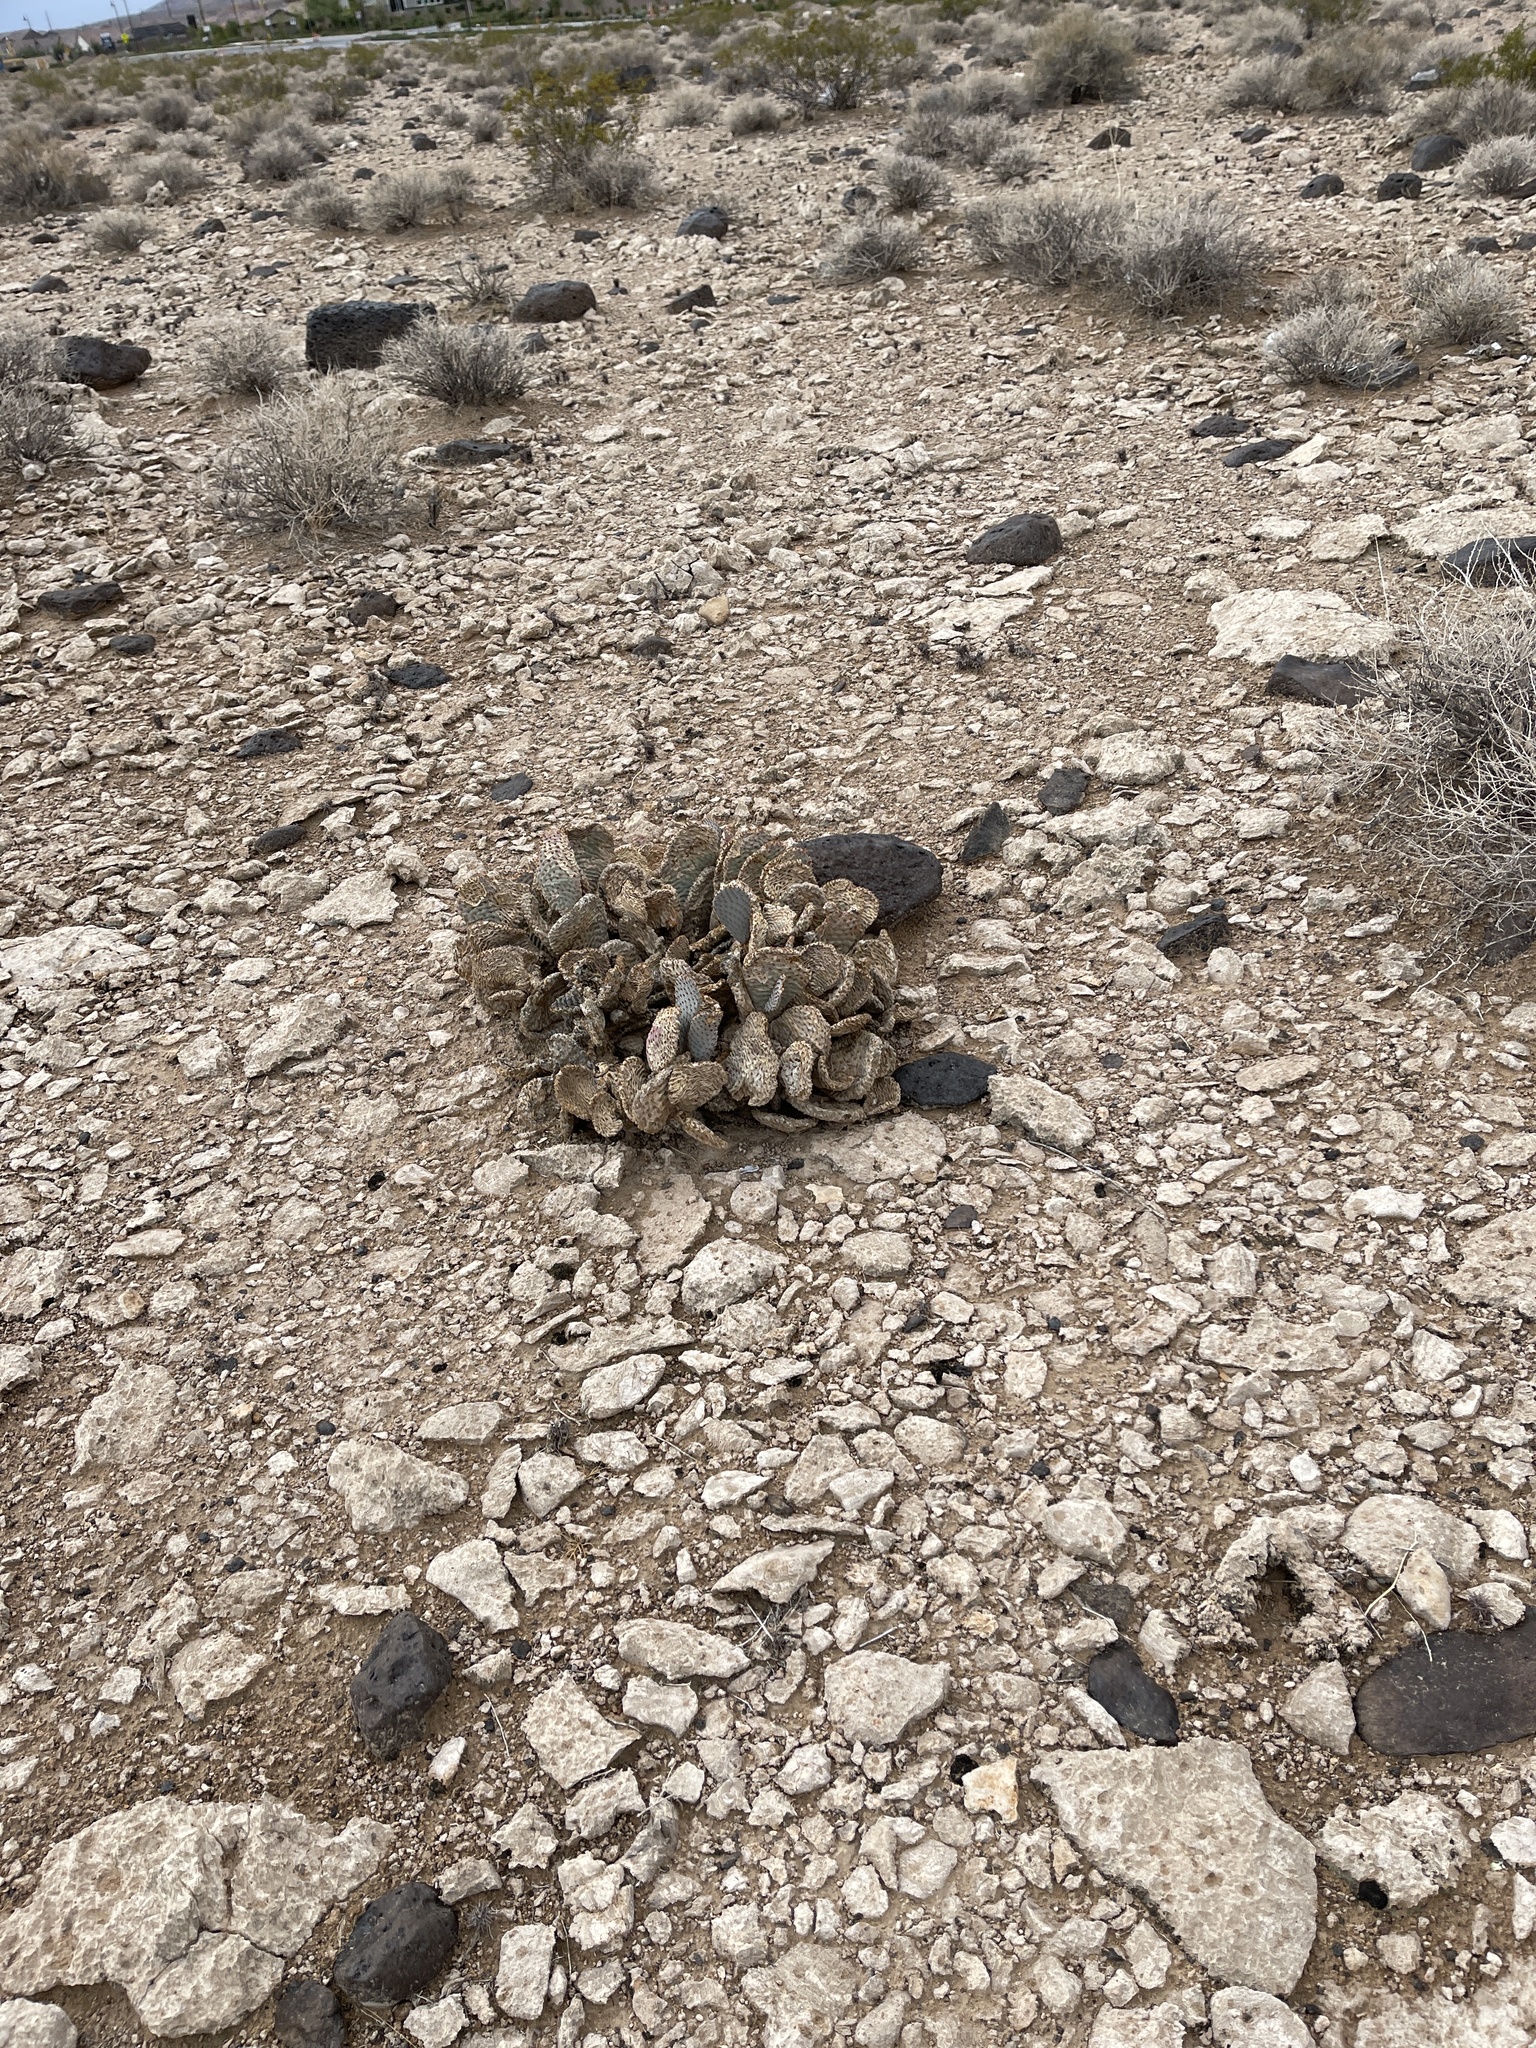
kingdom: Plantae
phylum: Tracheophyta
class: Magnoliopsida
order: Caryophyllales
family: Cactaceae
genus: Opuntia
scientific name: Opuntia basilaris
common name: Beavertail prickly-pear
